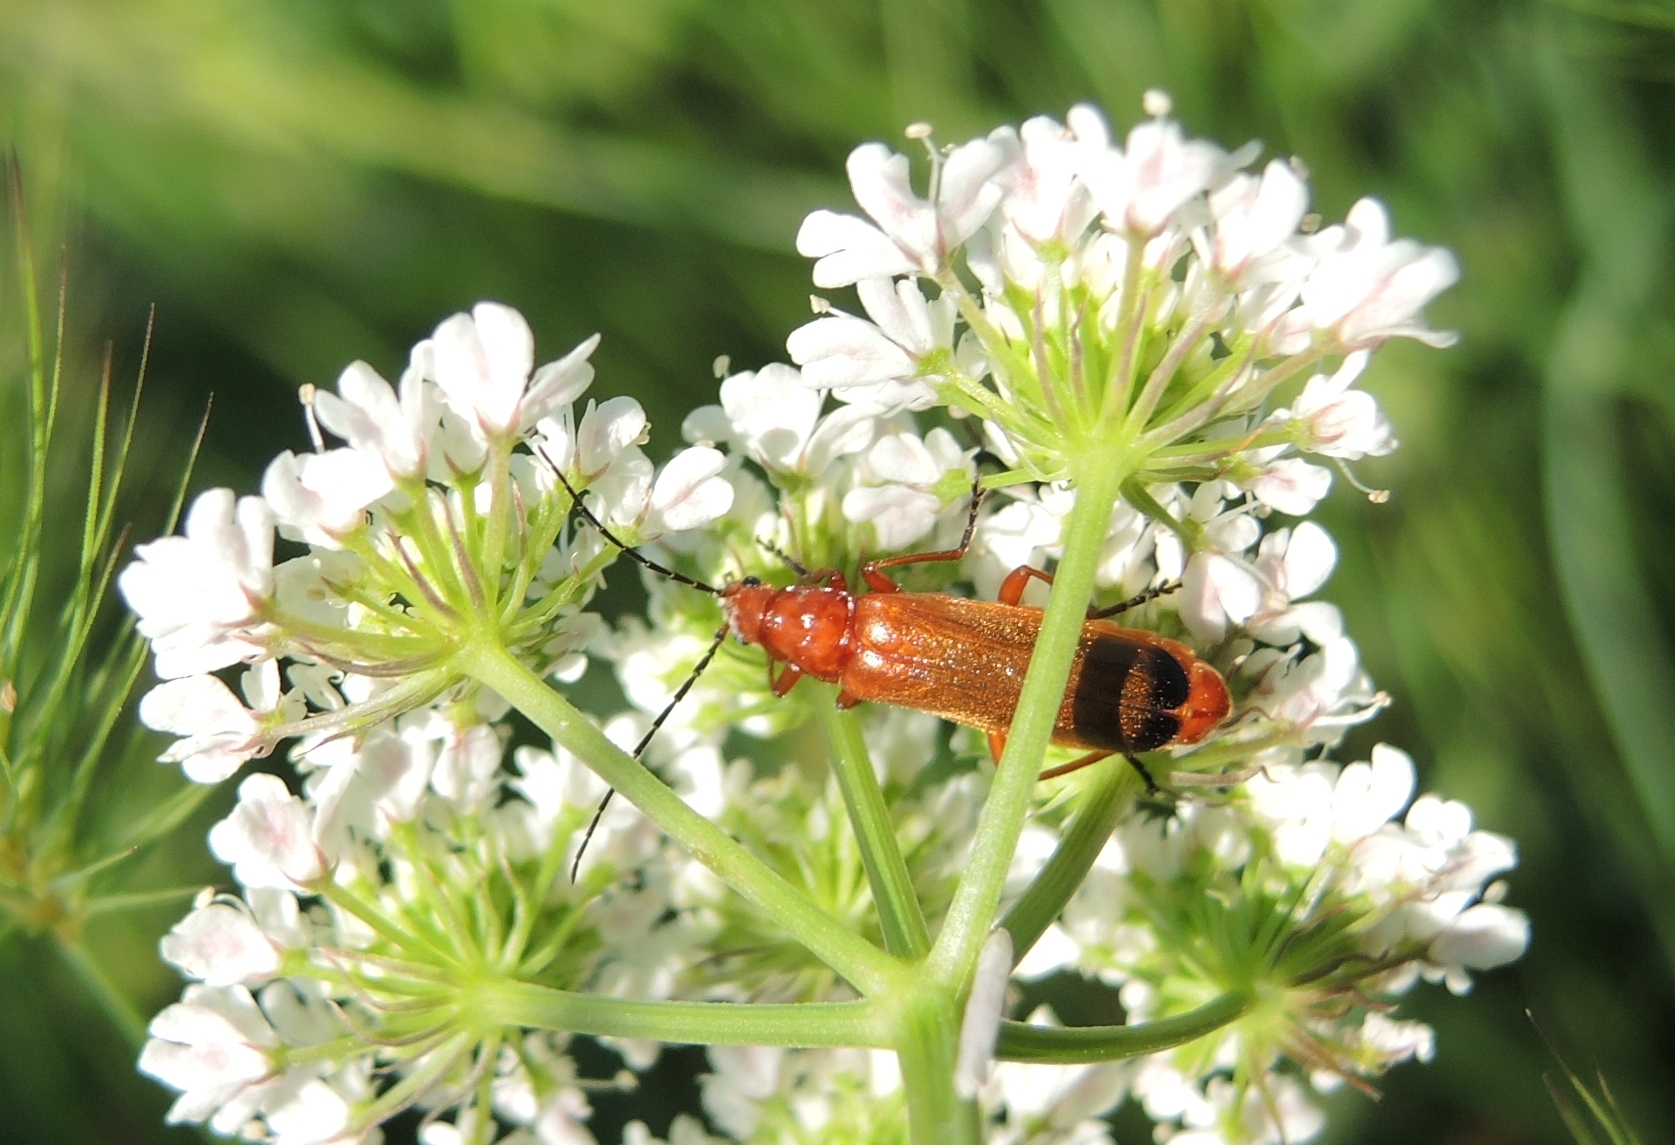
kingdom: Animalia
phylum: Arthropoda
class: Insecta
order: Coleoptera
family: Cantharidae
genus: Rhagonycha
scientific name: Rhagonycha fulva
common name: Common red soldier beetle
